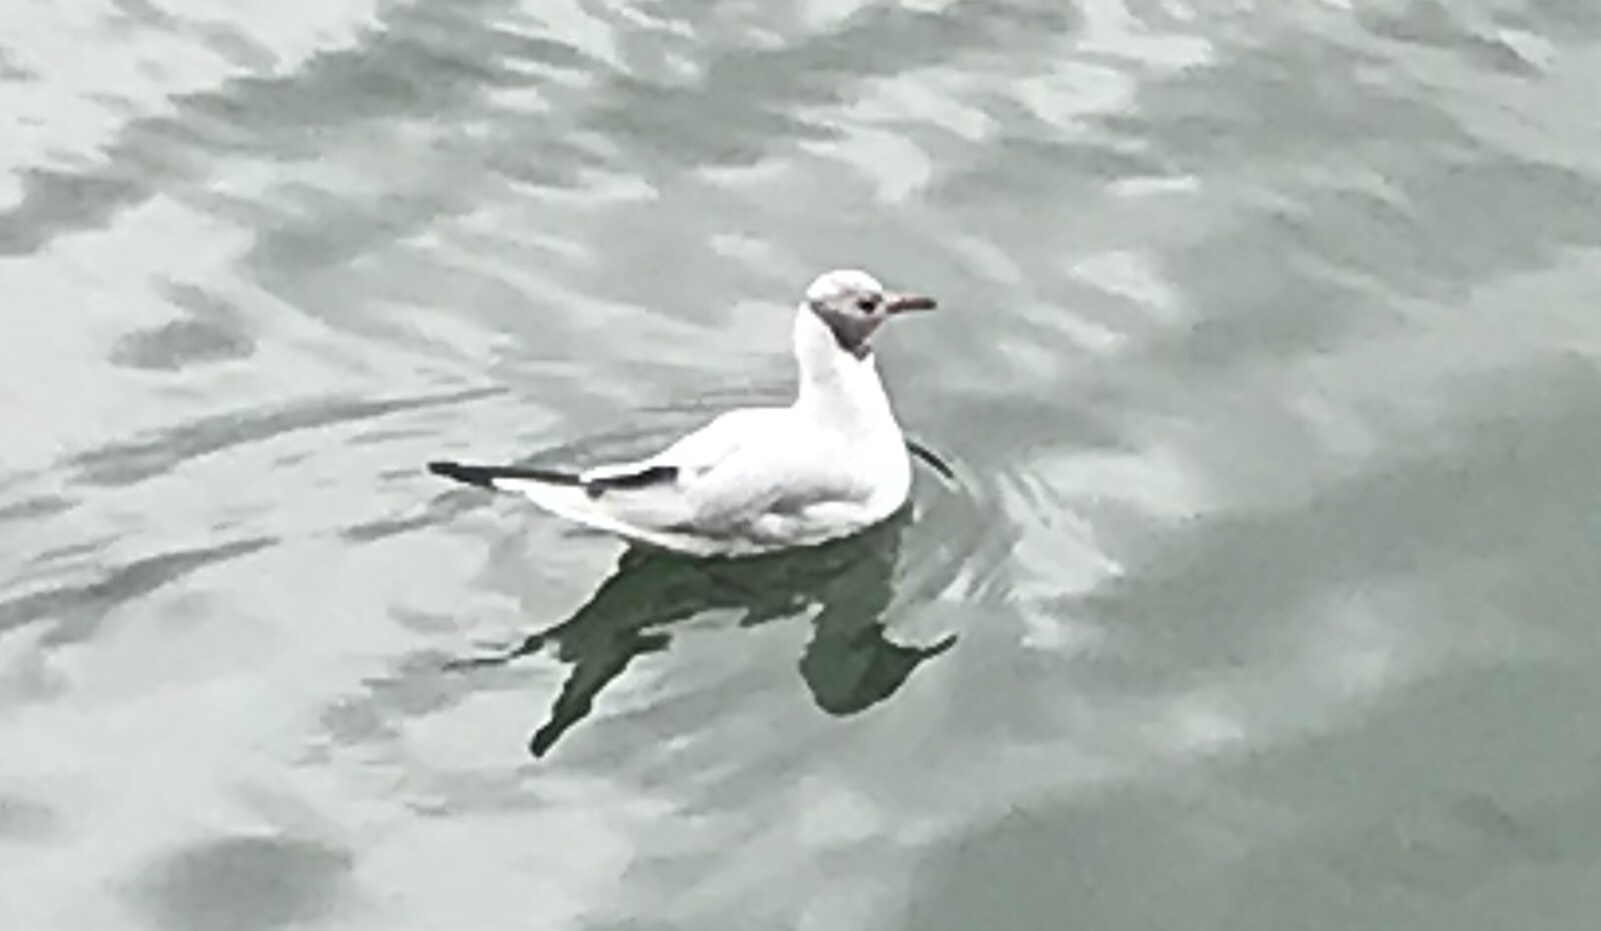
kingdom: Animalia
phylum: Chordata
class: Aves
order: Charadriiformes
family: Laridae
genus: Chroicocephalus
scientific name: Chroicocephalus ridibundus
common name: Black-headed gull
